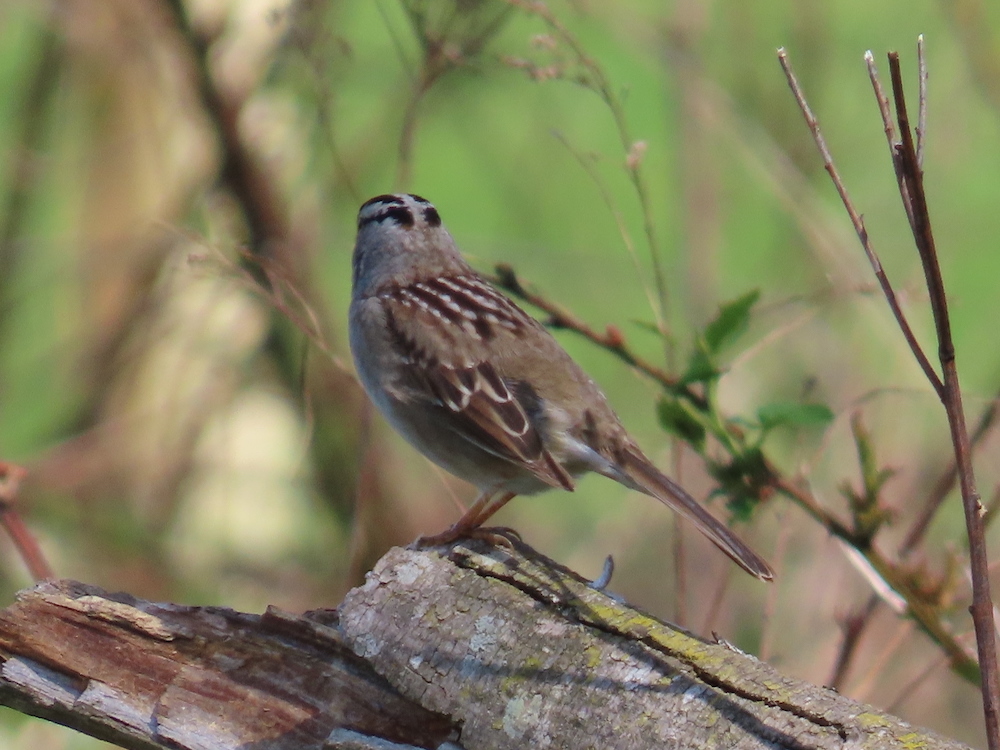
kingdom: Animalia
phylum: Chordata
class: Aves
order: Passeriformes
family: Passerellidae
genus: Zonotrichia
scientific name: Zonotrichia leucophrys
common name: White-crowned sparrow
